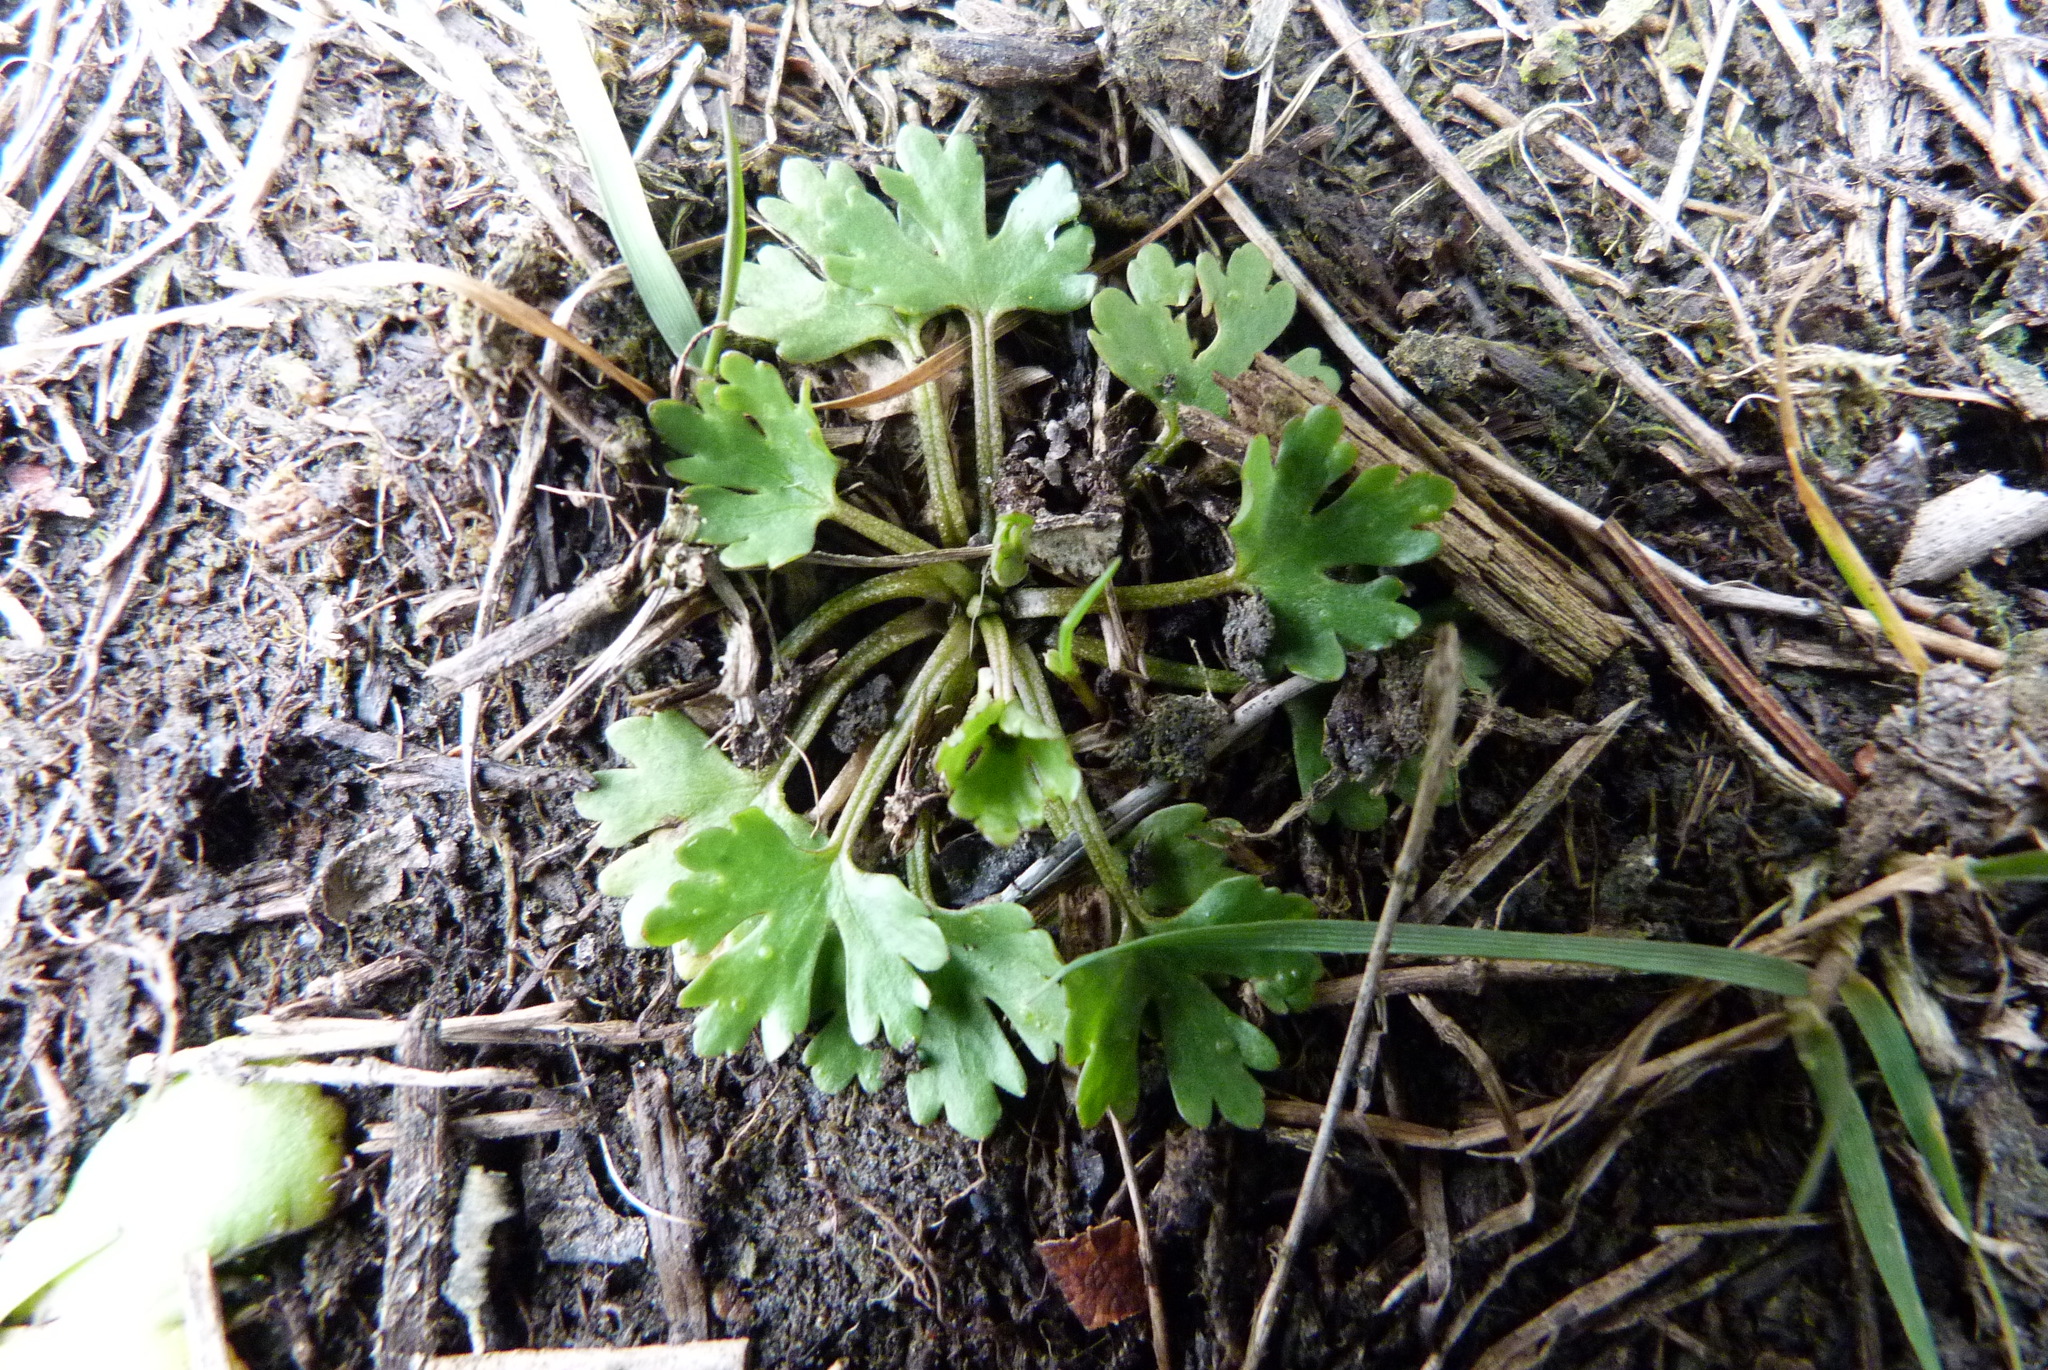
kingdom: Plantae
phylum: Tracheophyta
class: Magnoliopsida
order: Ranunculales
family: Ranunculaceae
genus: Ranunculus
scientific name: Ranunculus sceleratus
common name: Celery-leaved buttercup
